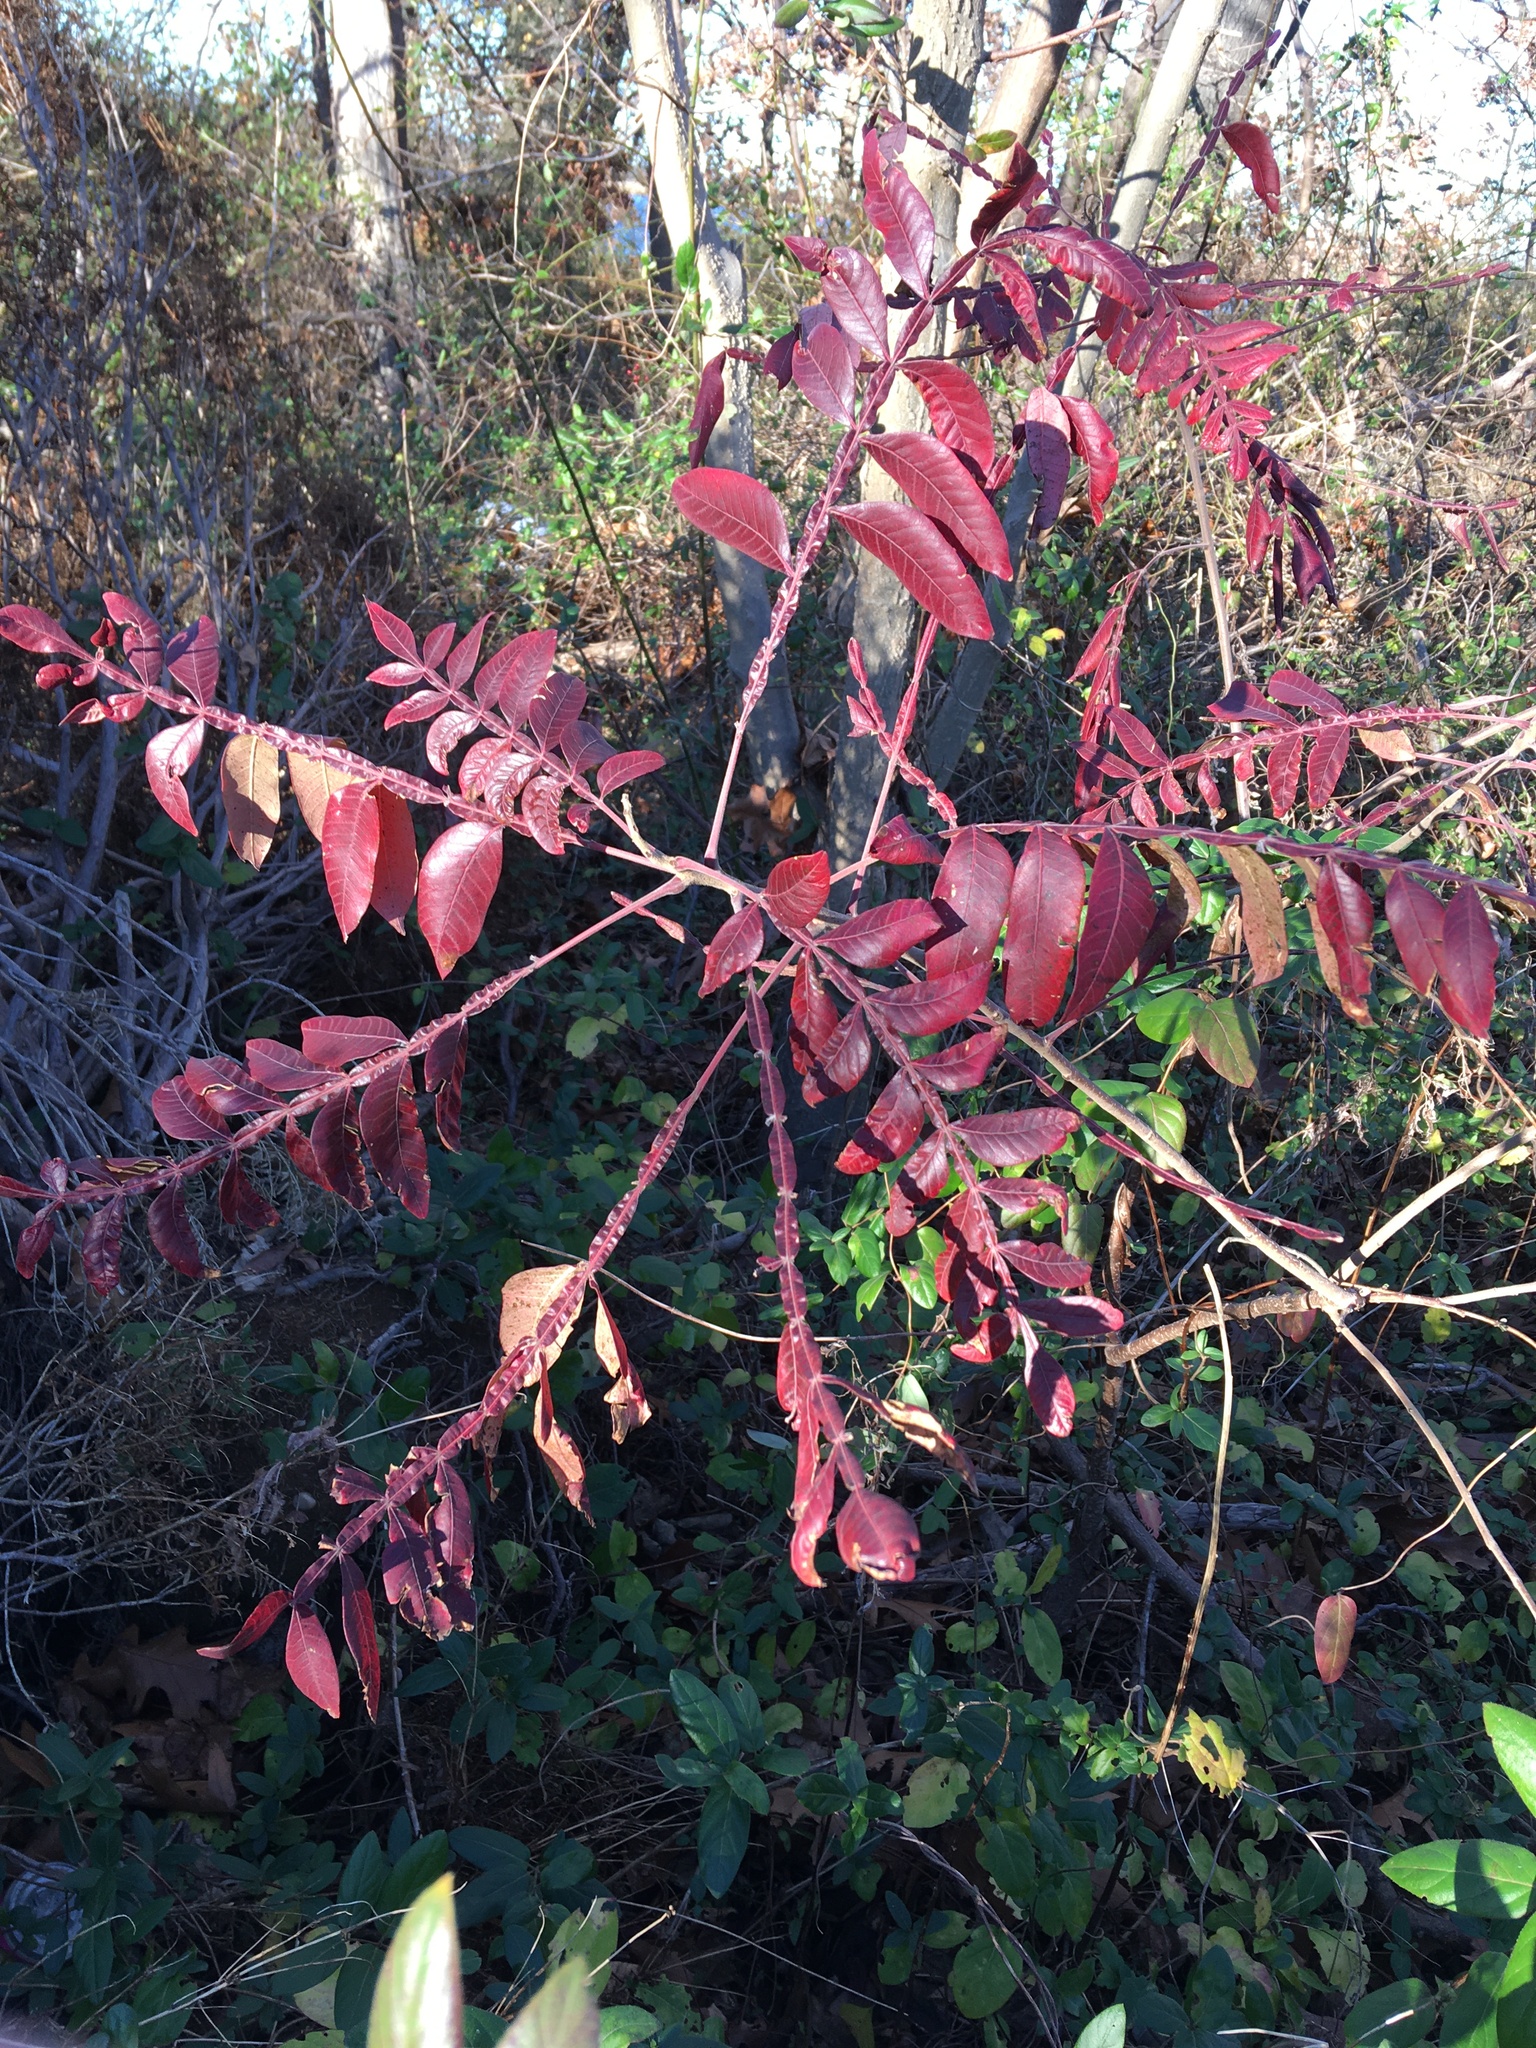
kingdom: Plantae
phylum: Tracheophyta
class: Magnoliopsida
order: Sapindales
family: Anacardiaceae
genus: Rhus
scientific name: Rhus copallina
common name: Shining sumac
